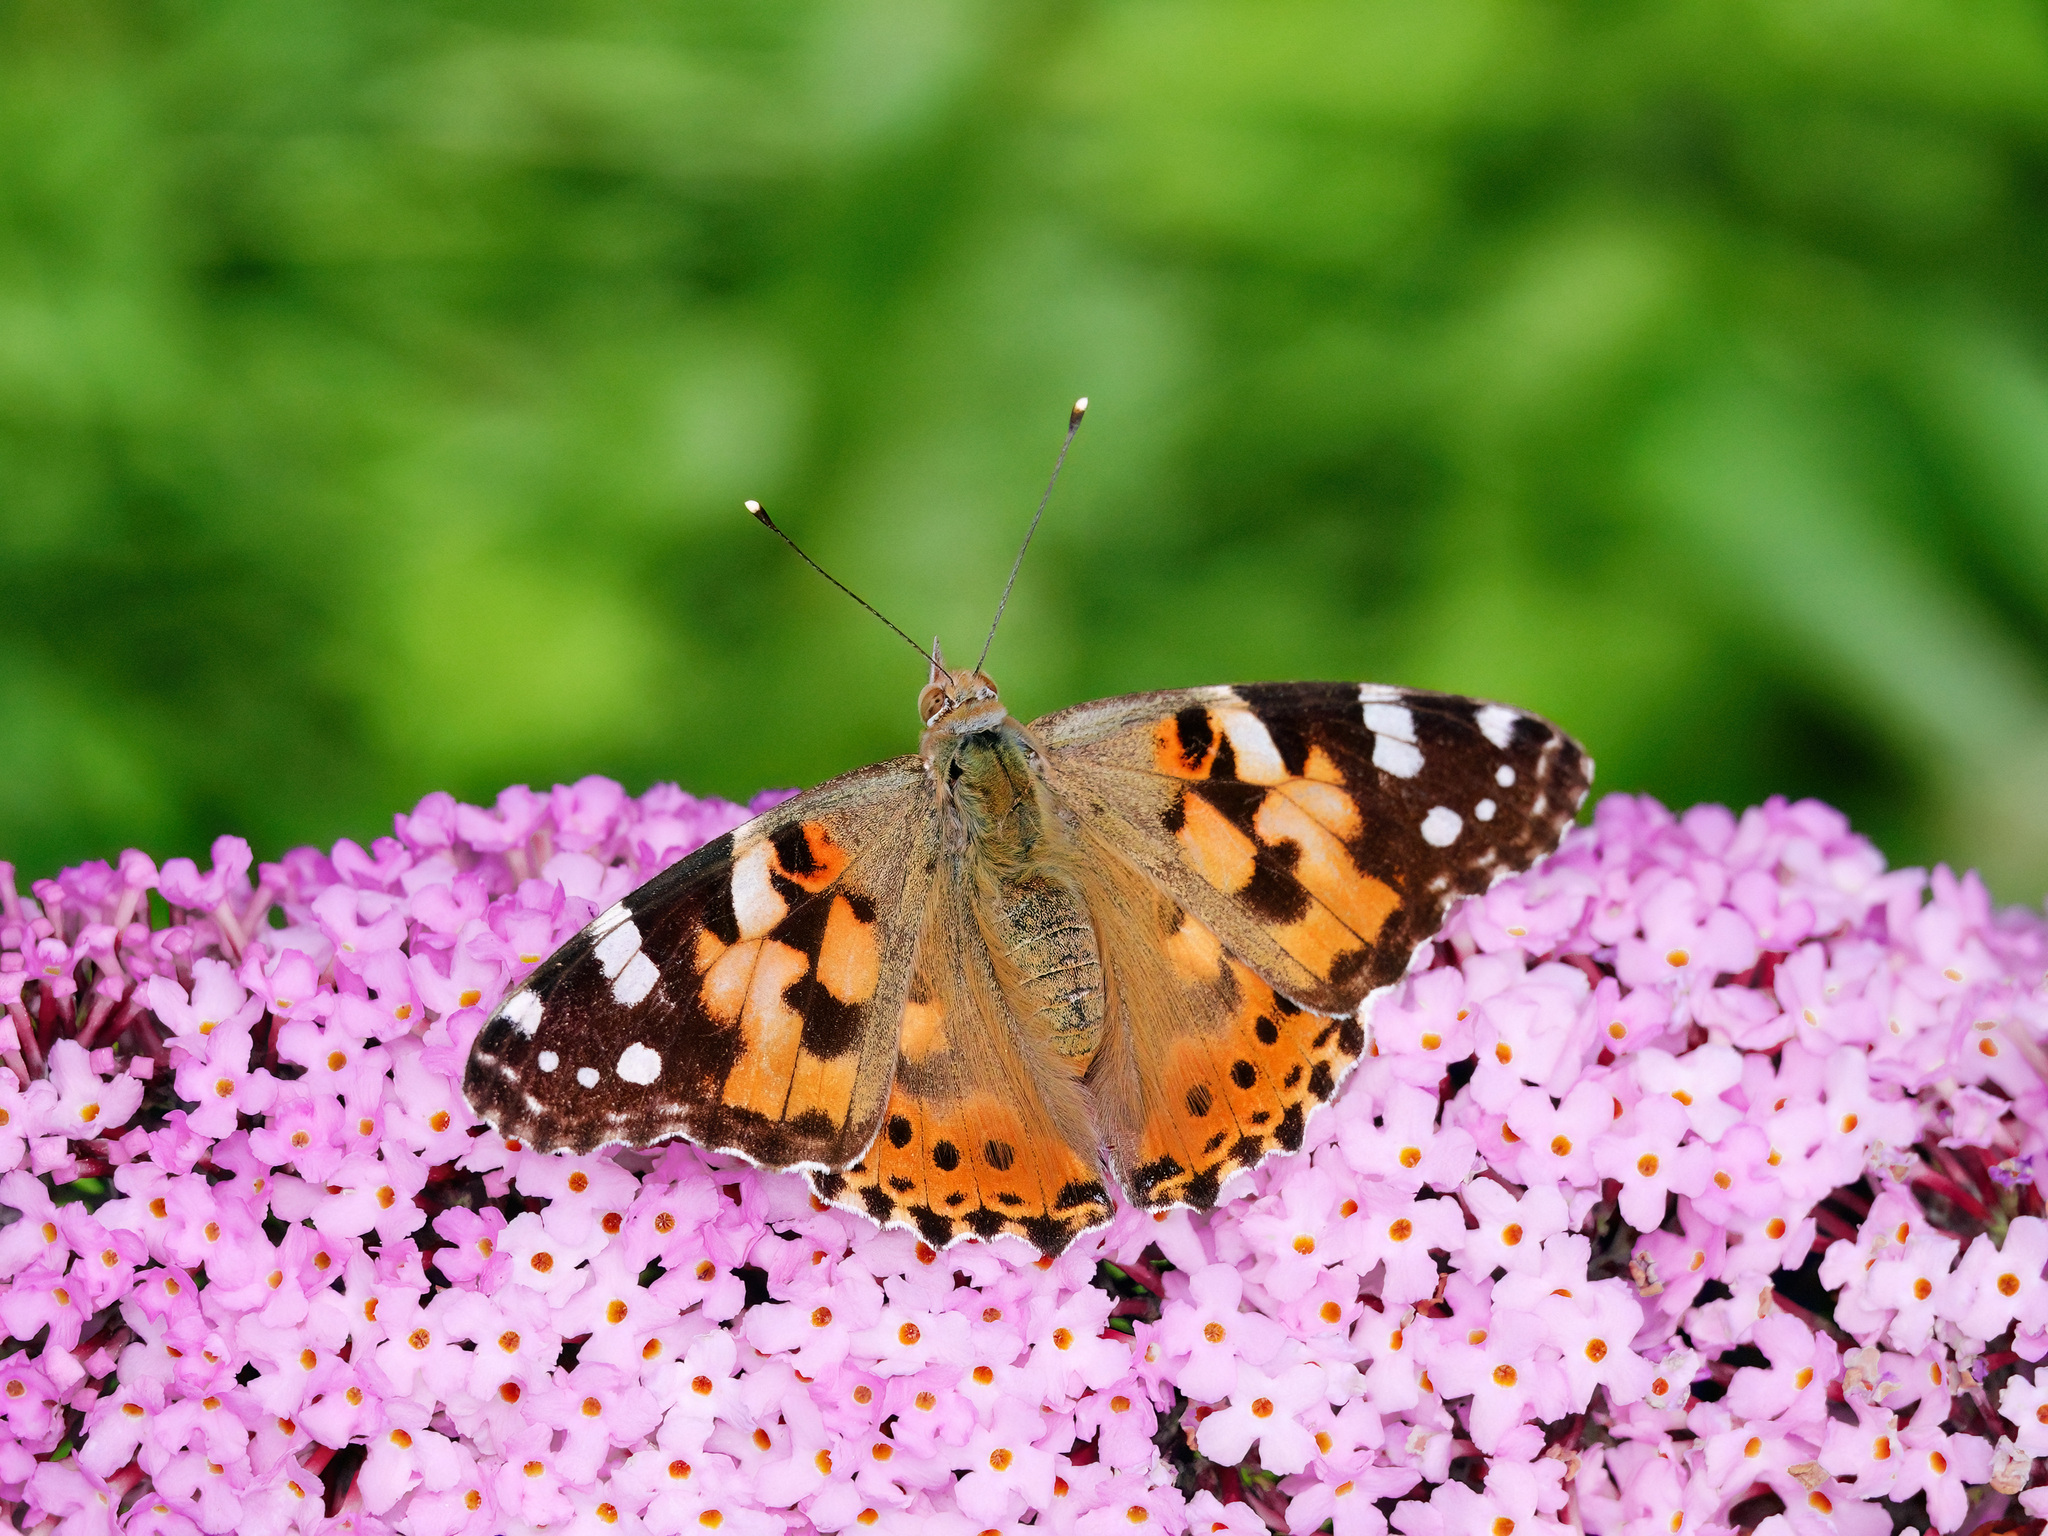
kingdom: Animalia
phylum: Arthropoda
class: Insecta
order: Lepidoptera
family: Nymphalidae
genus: Vanessa
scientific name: Vanessa cardui
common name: Painted lady
